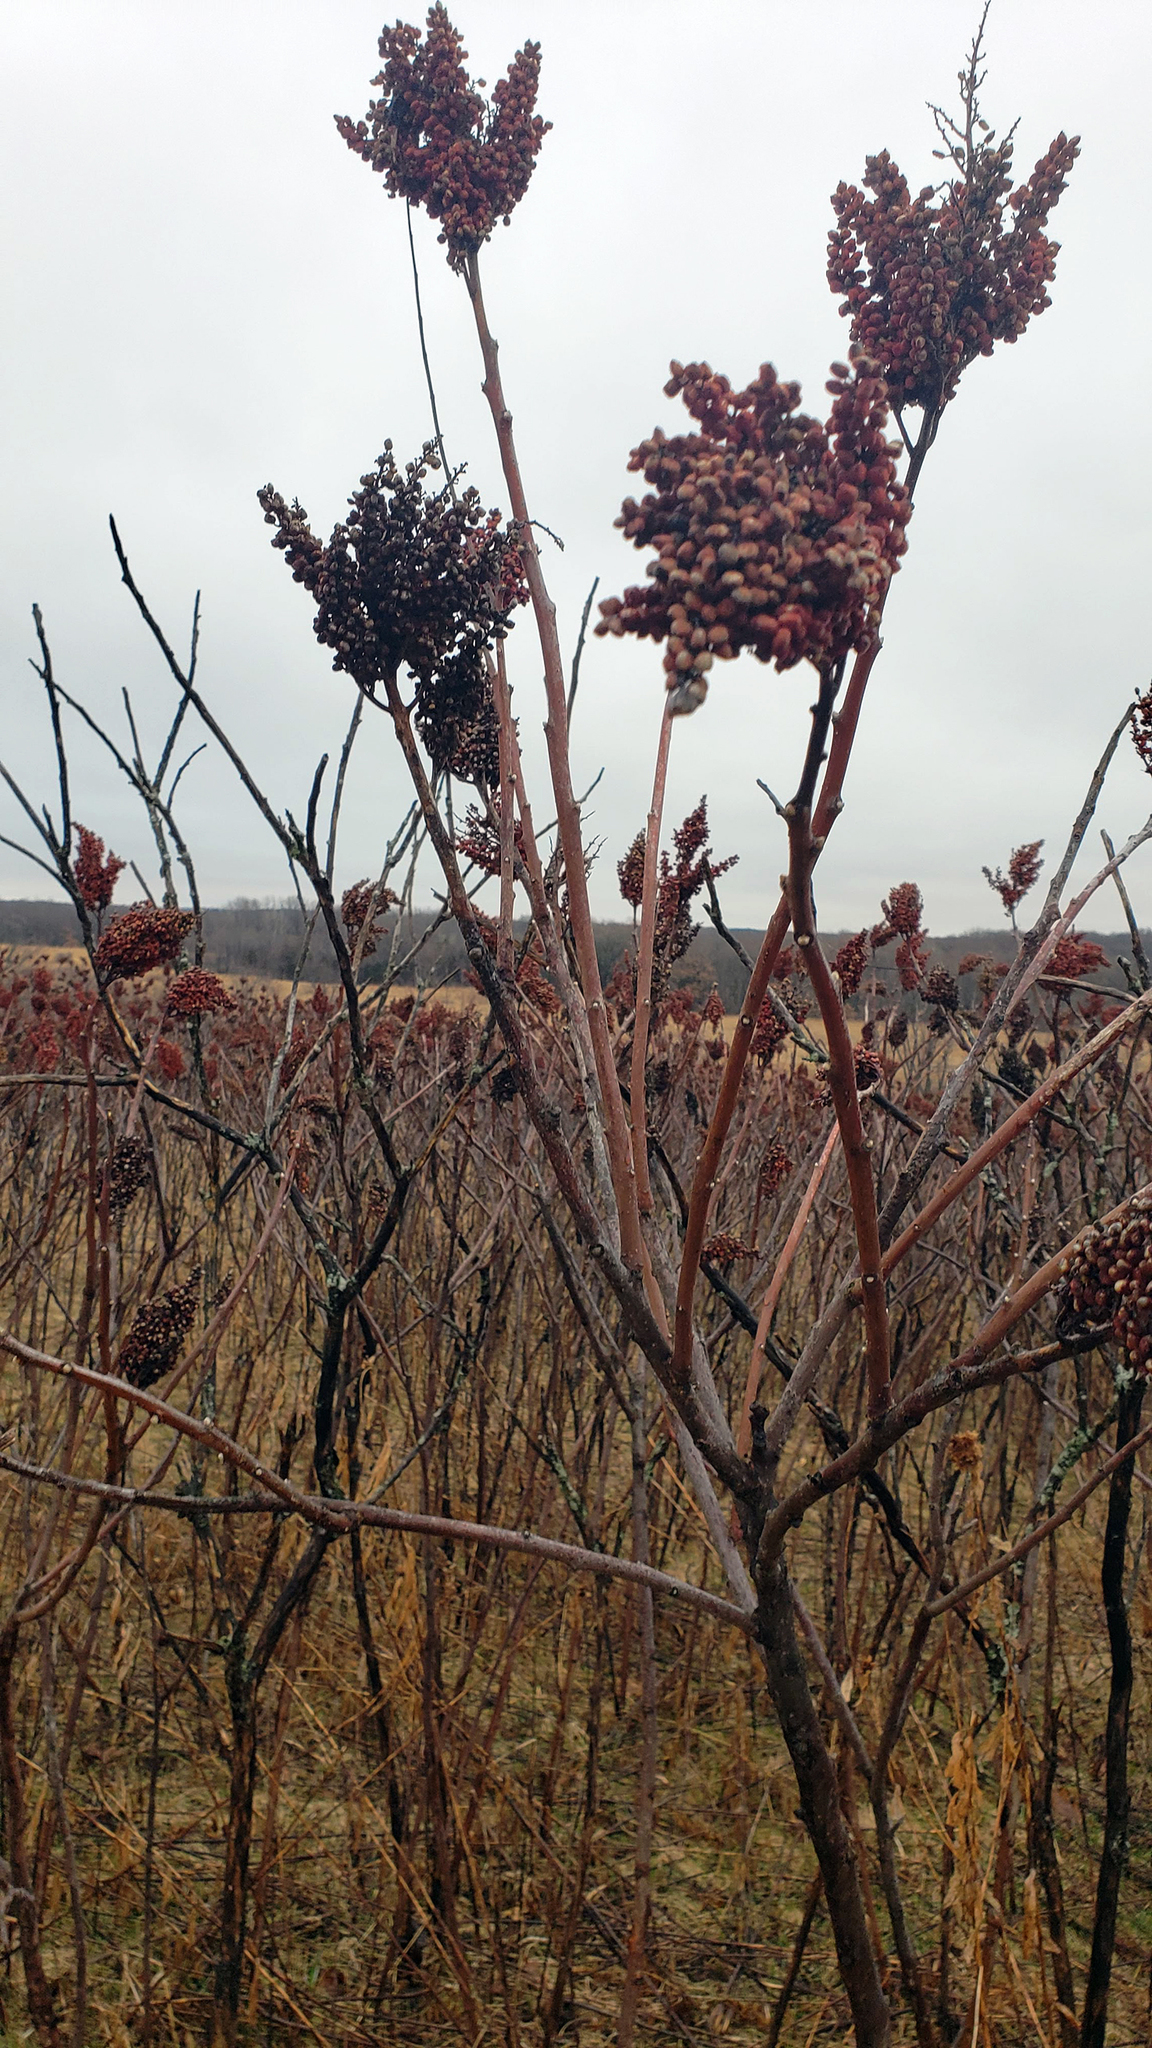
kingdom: Plantae
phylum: Tracheophyta
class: Magnoliopsida
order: Sapindales
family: Anacardiaceae
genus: Rhus
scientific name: Rhus glabra
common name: Scarlet sumac
